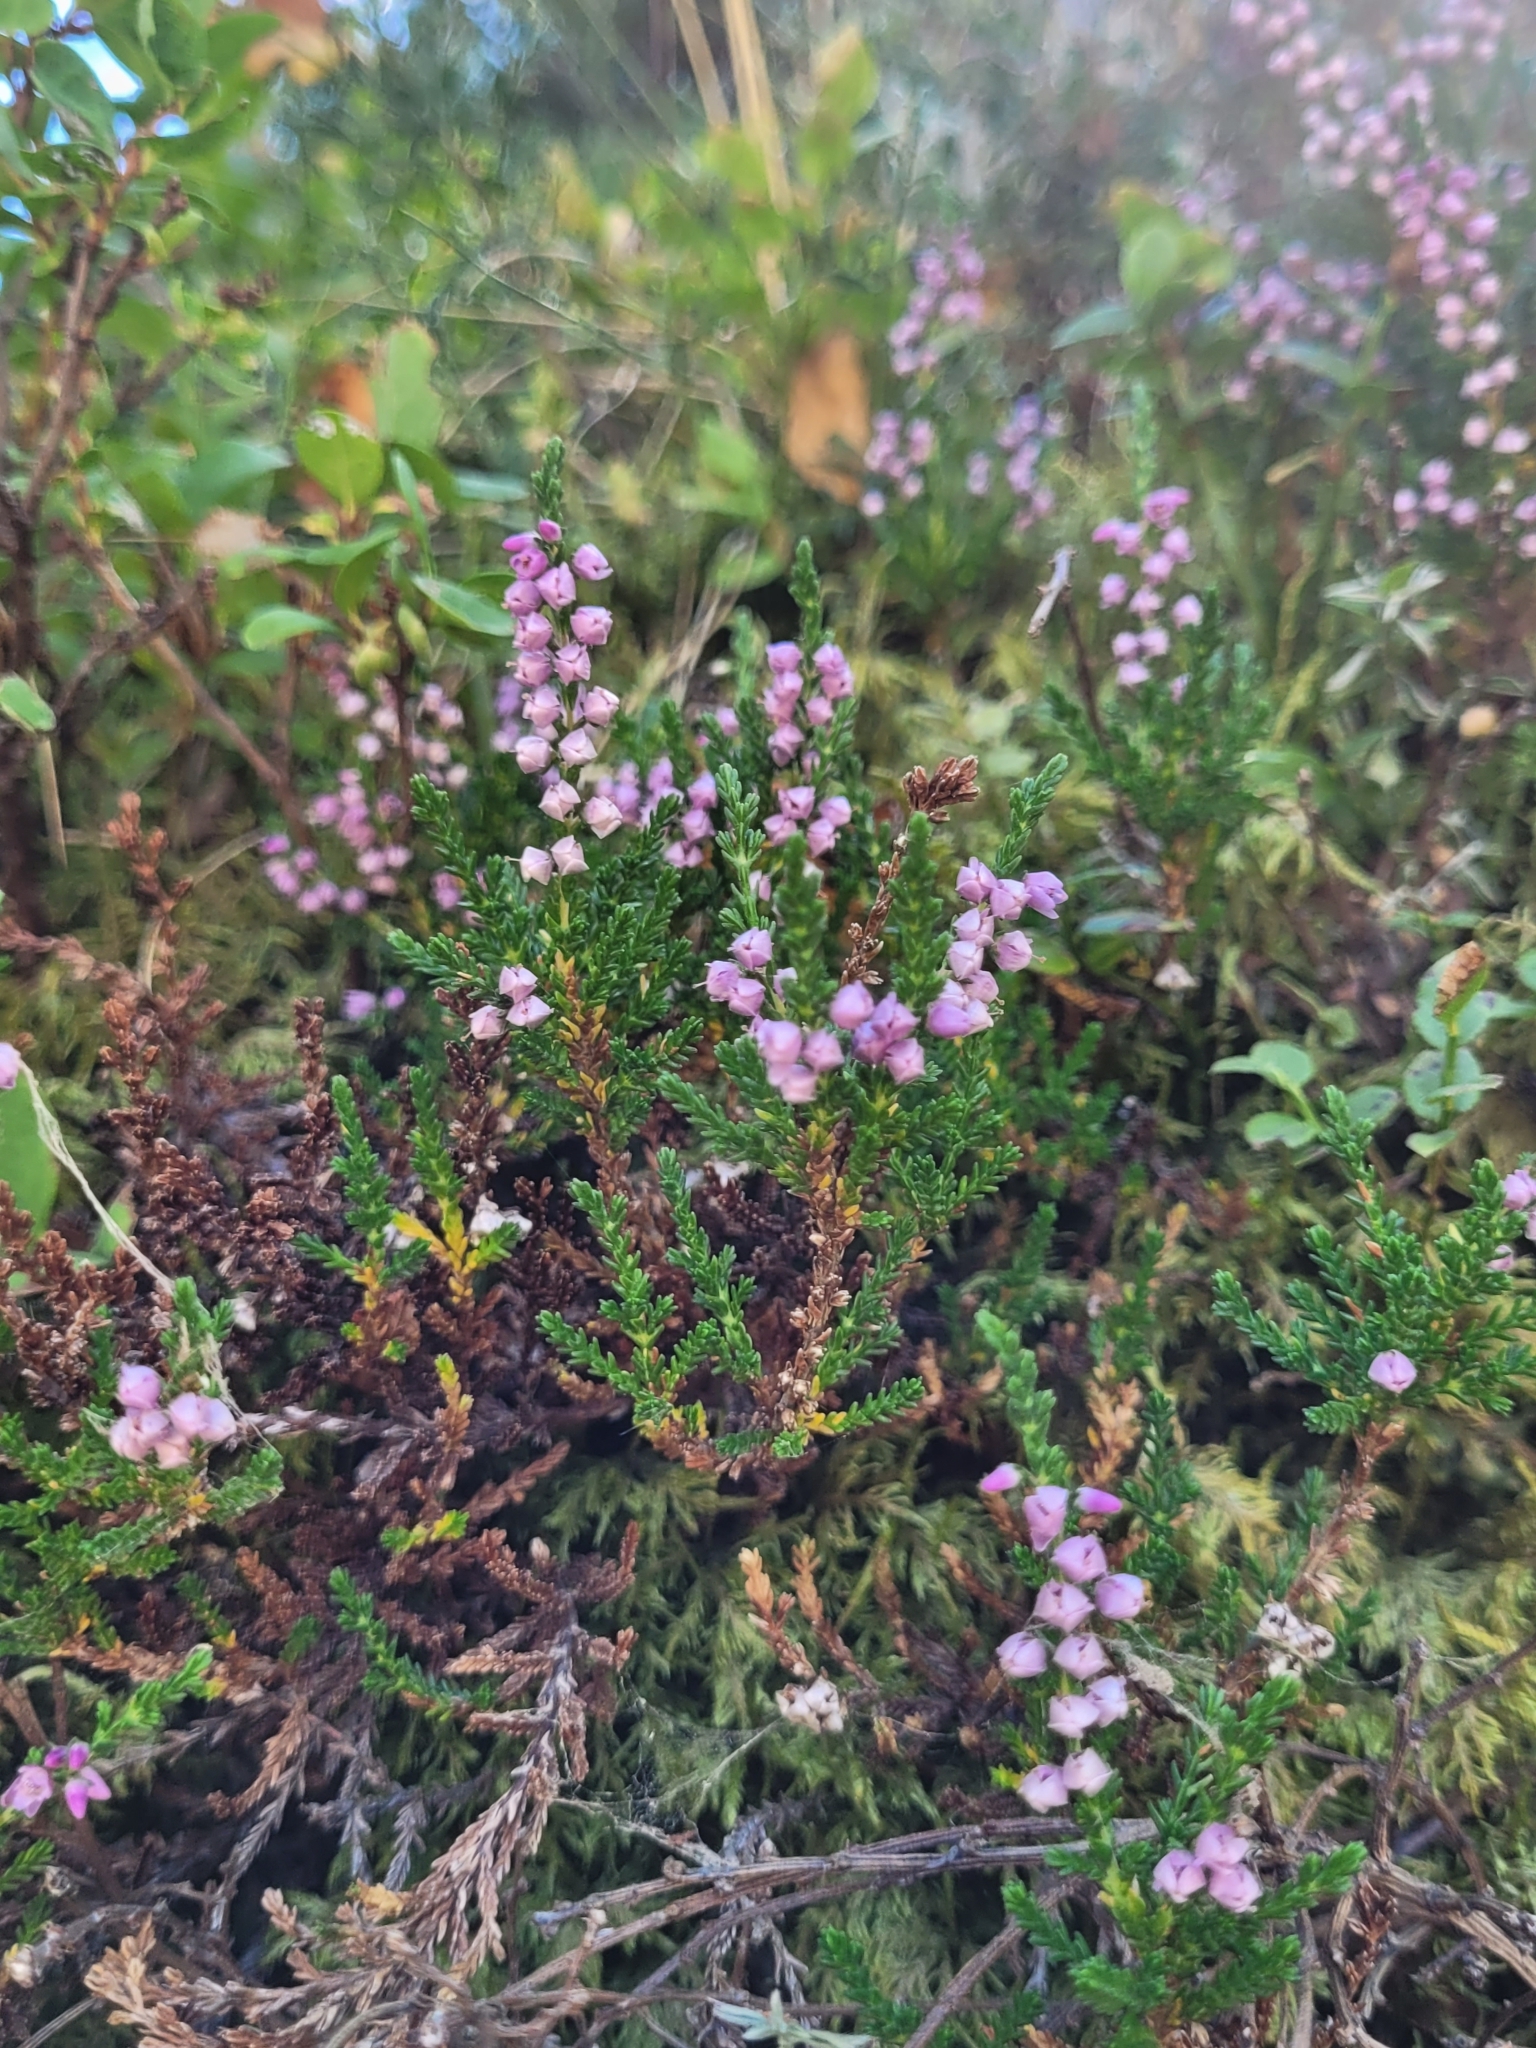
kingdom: Plantae
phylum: Tracheophyta
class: Magnoliopsida
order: Ericales
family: Ericaceae
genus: Calluna
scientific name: Calluna vulgaris
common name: Heather
